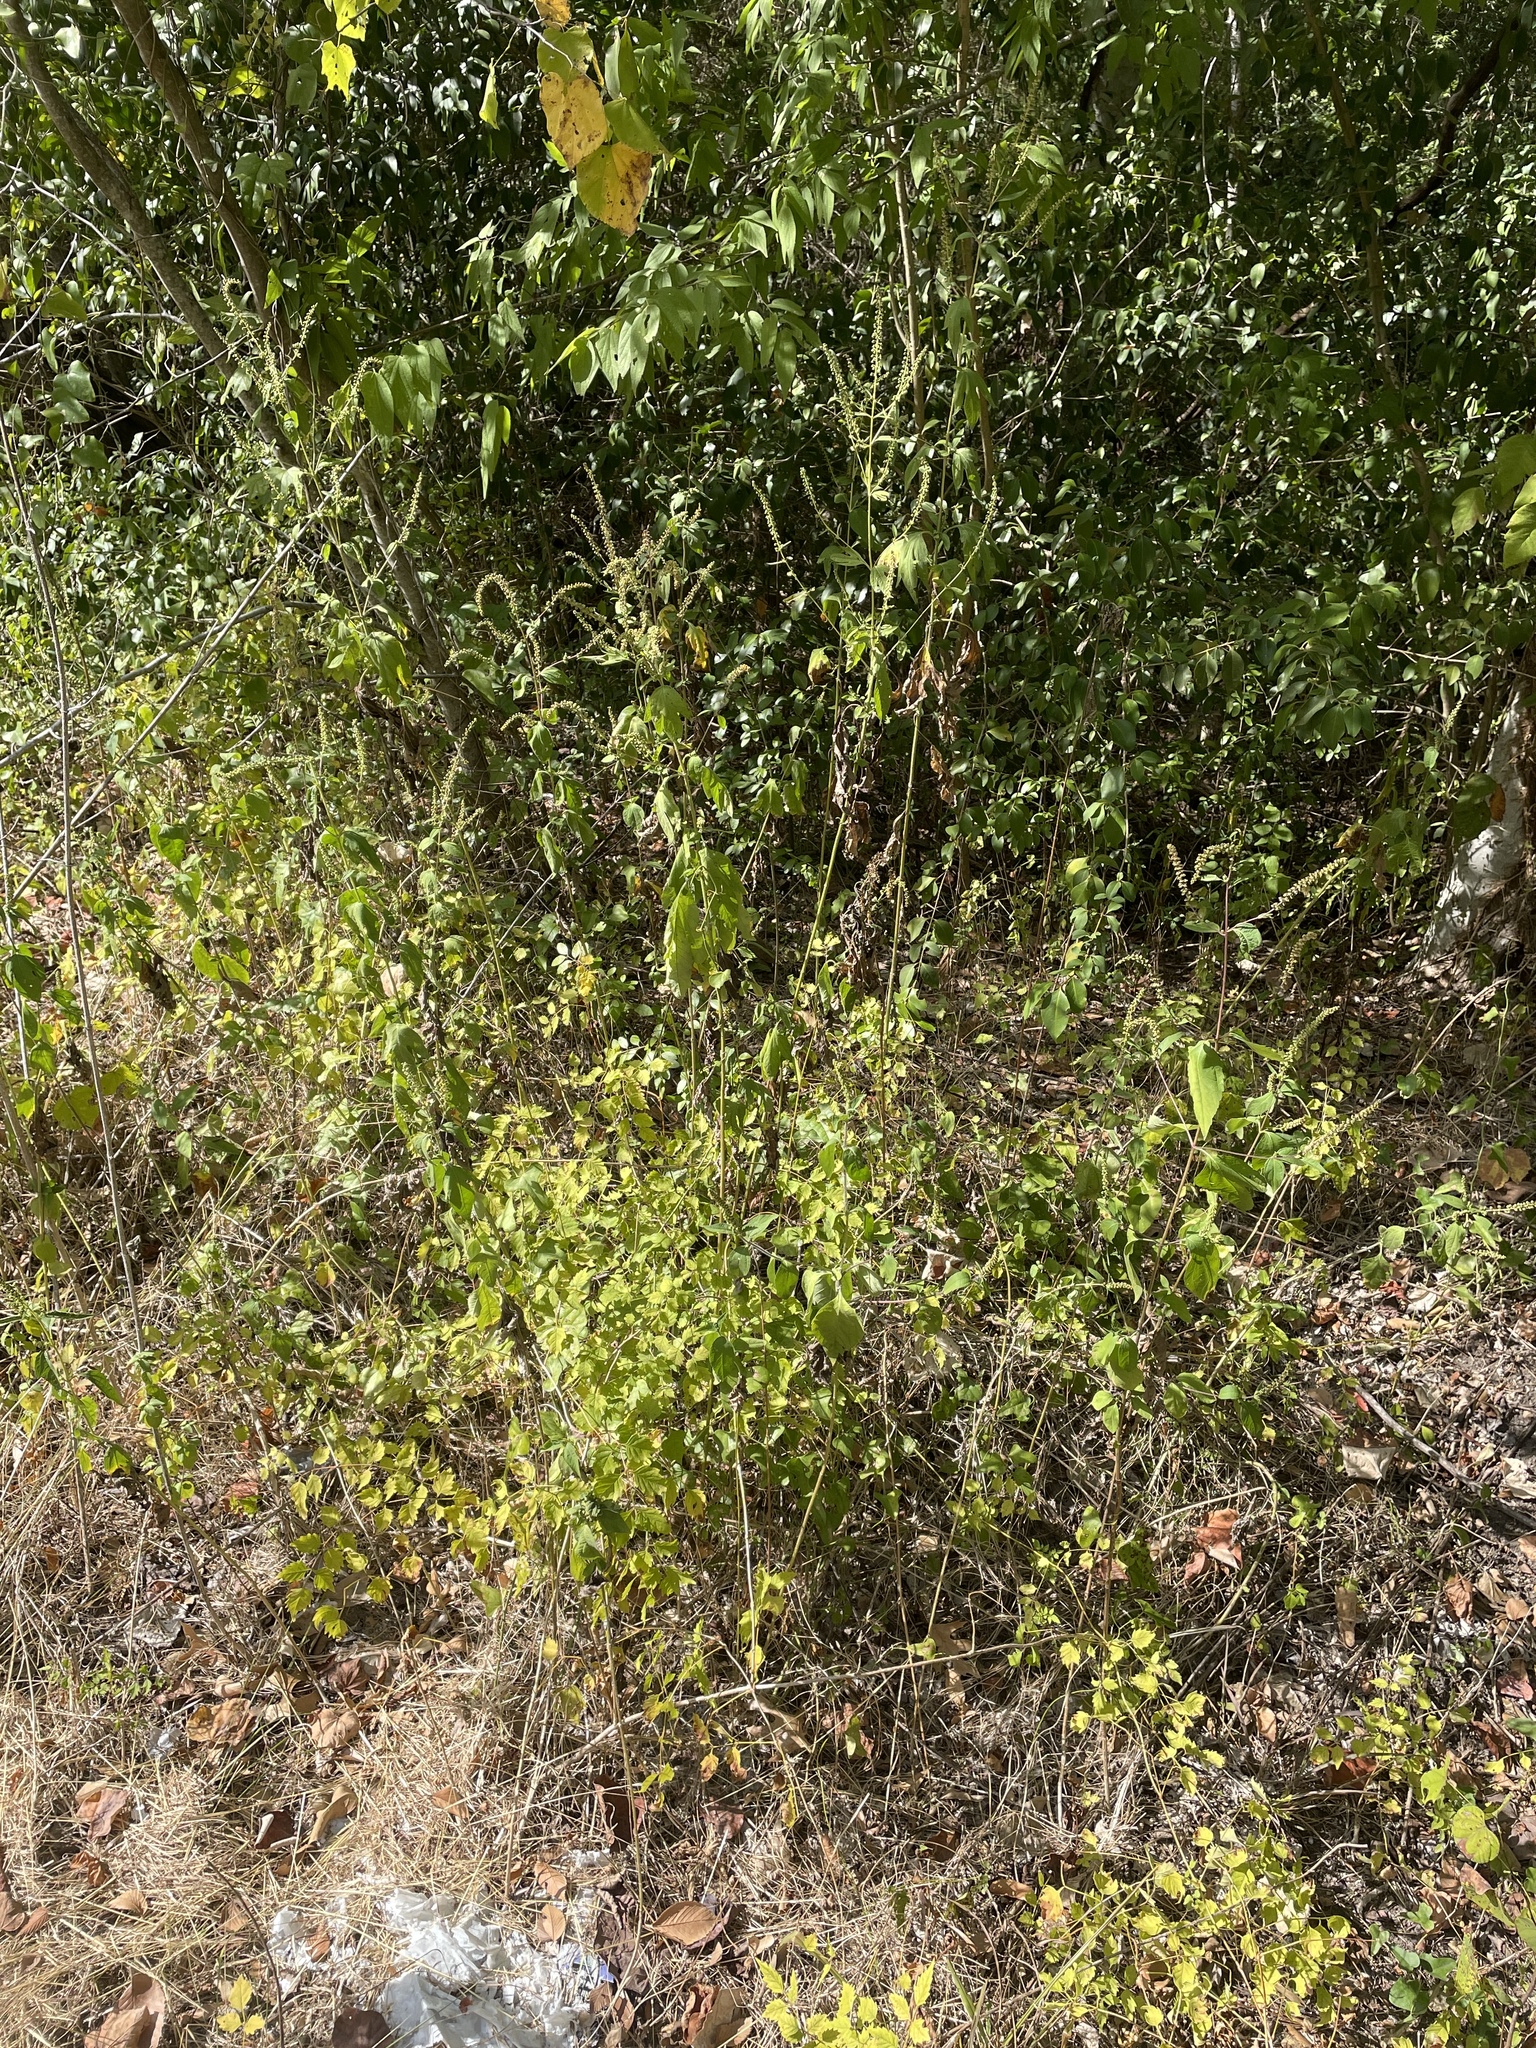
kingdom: Plantae
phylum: Tracheophyta
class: Magnoliopsida
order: Asterales
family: Asteraceae
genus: Ambrosia
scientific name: Ambrosia trifida
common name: Giant ragweed
